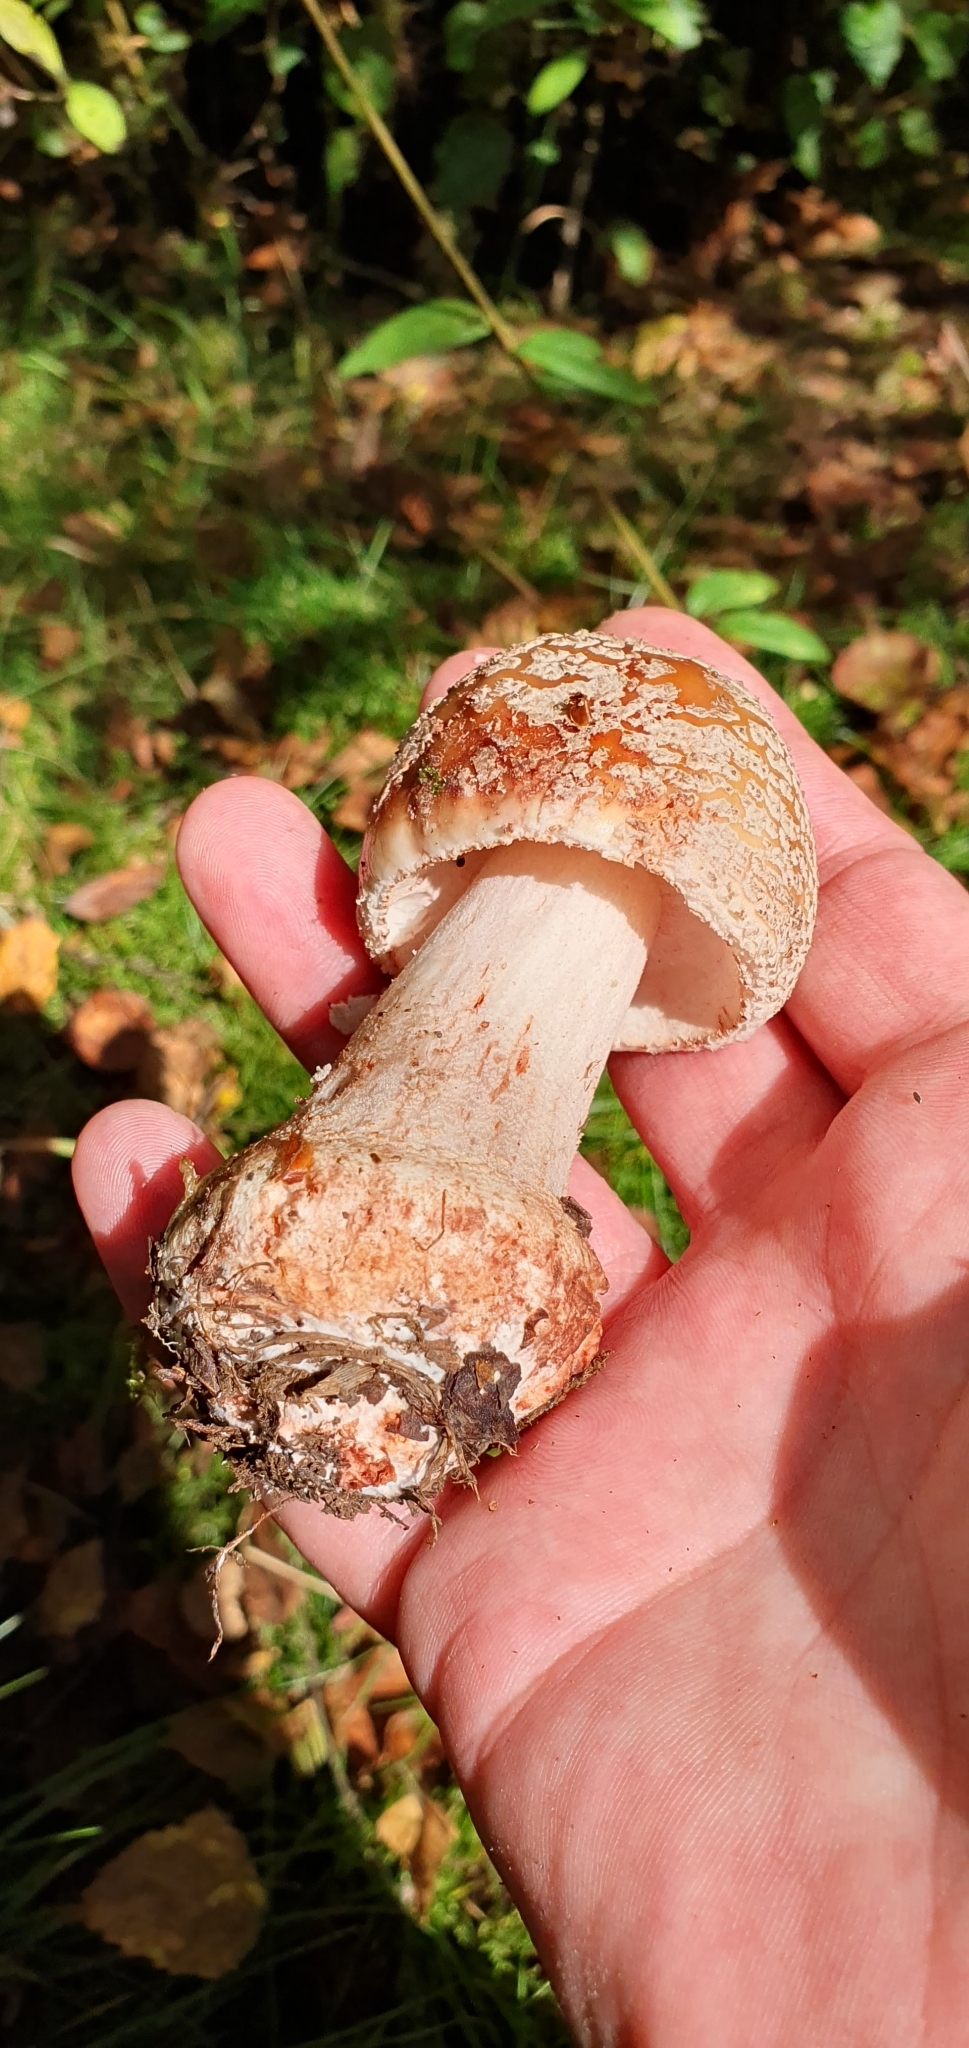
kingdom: Fungi
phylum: Basidiomycota
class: Agaricomycetes
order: Agaricales
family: Amanitaceae
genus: Amanita
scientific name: Amanita rubescens
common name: Blusher
